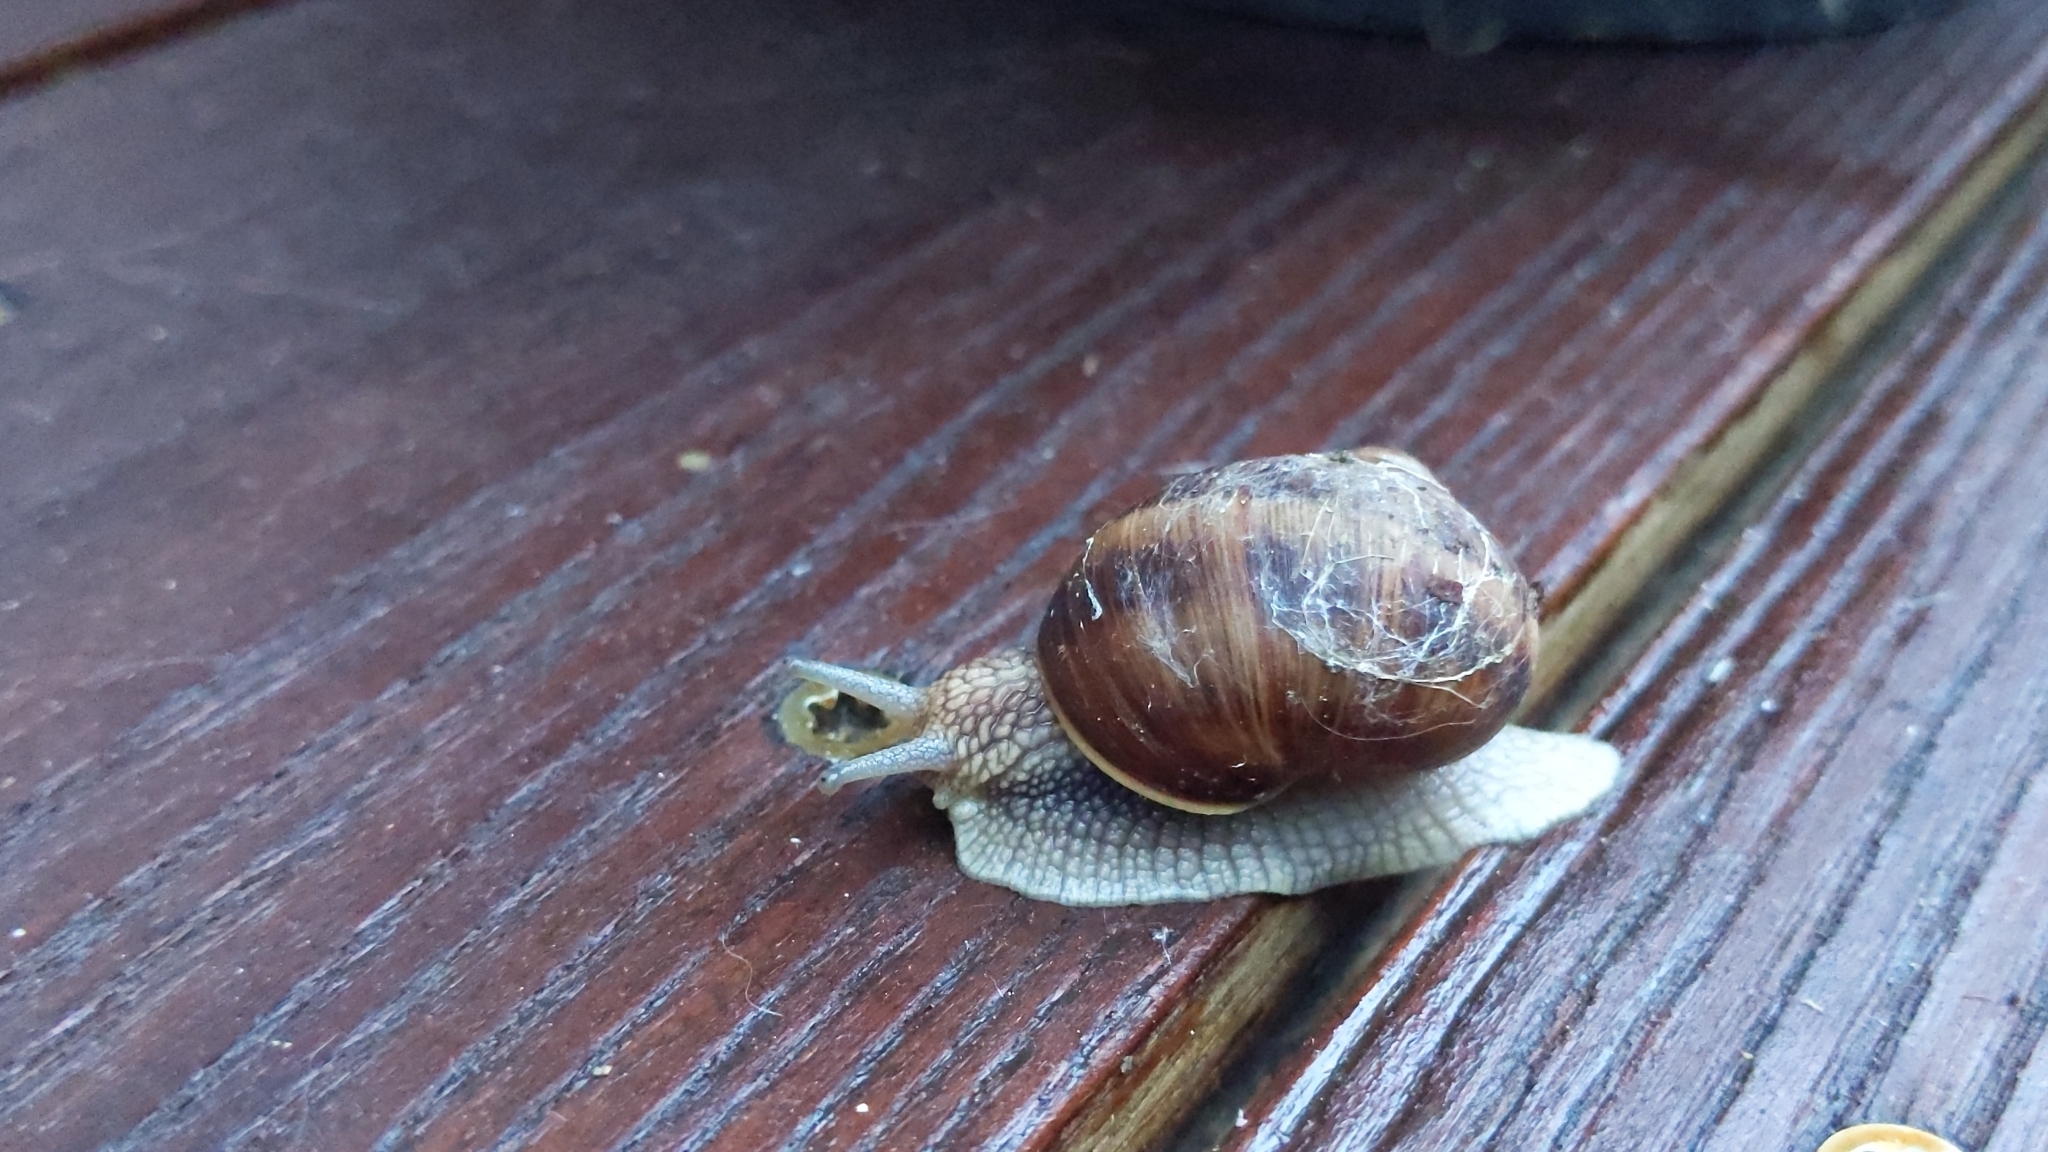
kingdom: Animalia
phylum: Mollusca
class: Gastropoda
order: Stylommatophora
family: Helicidae
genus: Helix
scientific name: Helix pomatia
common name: Roman snail
